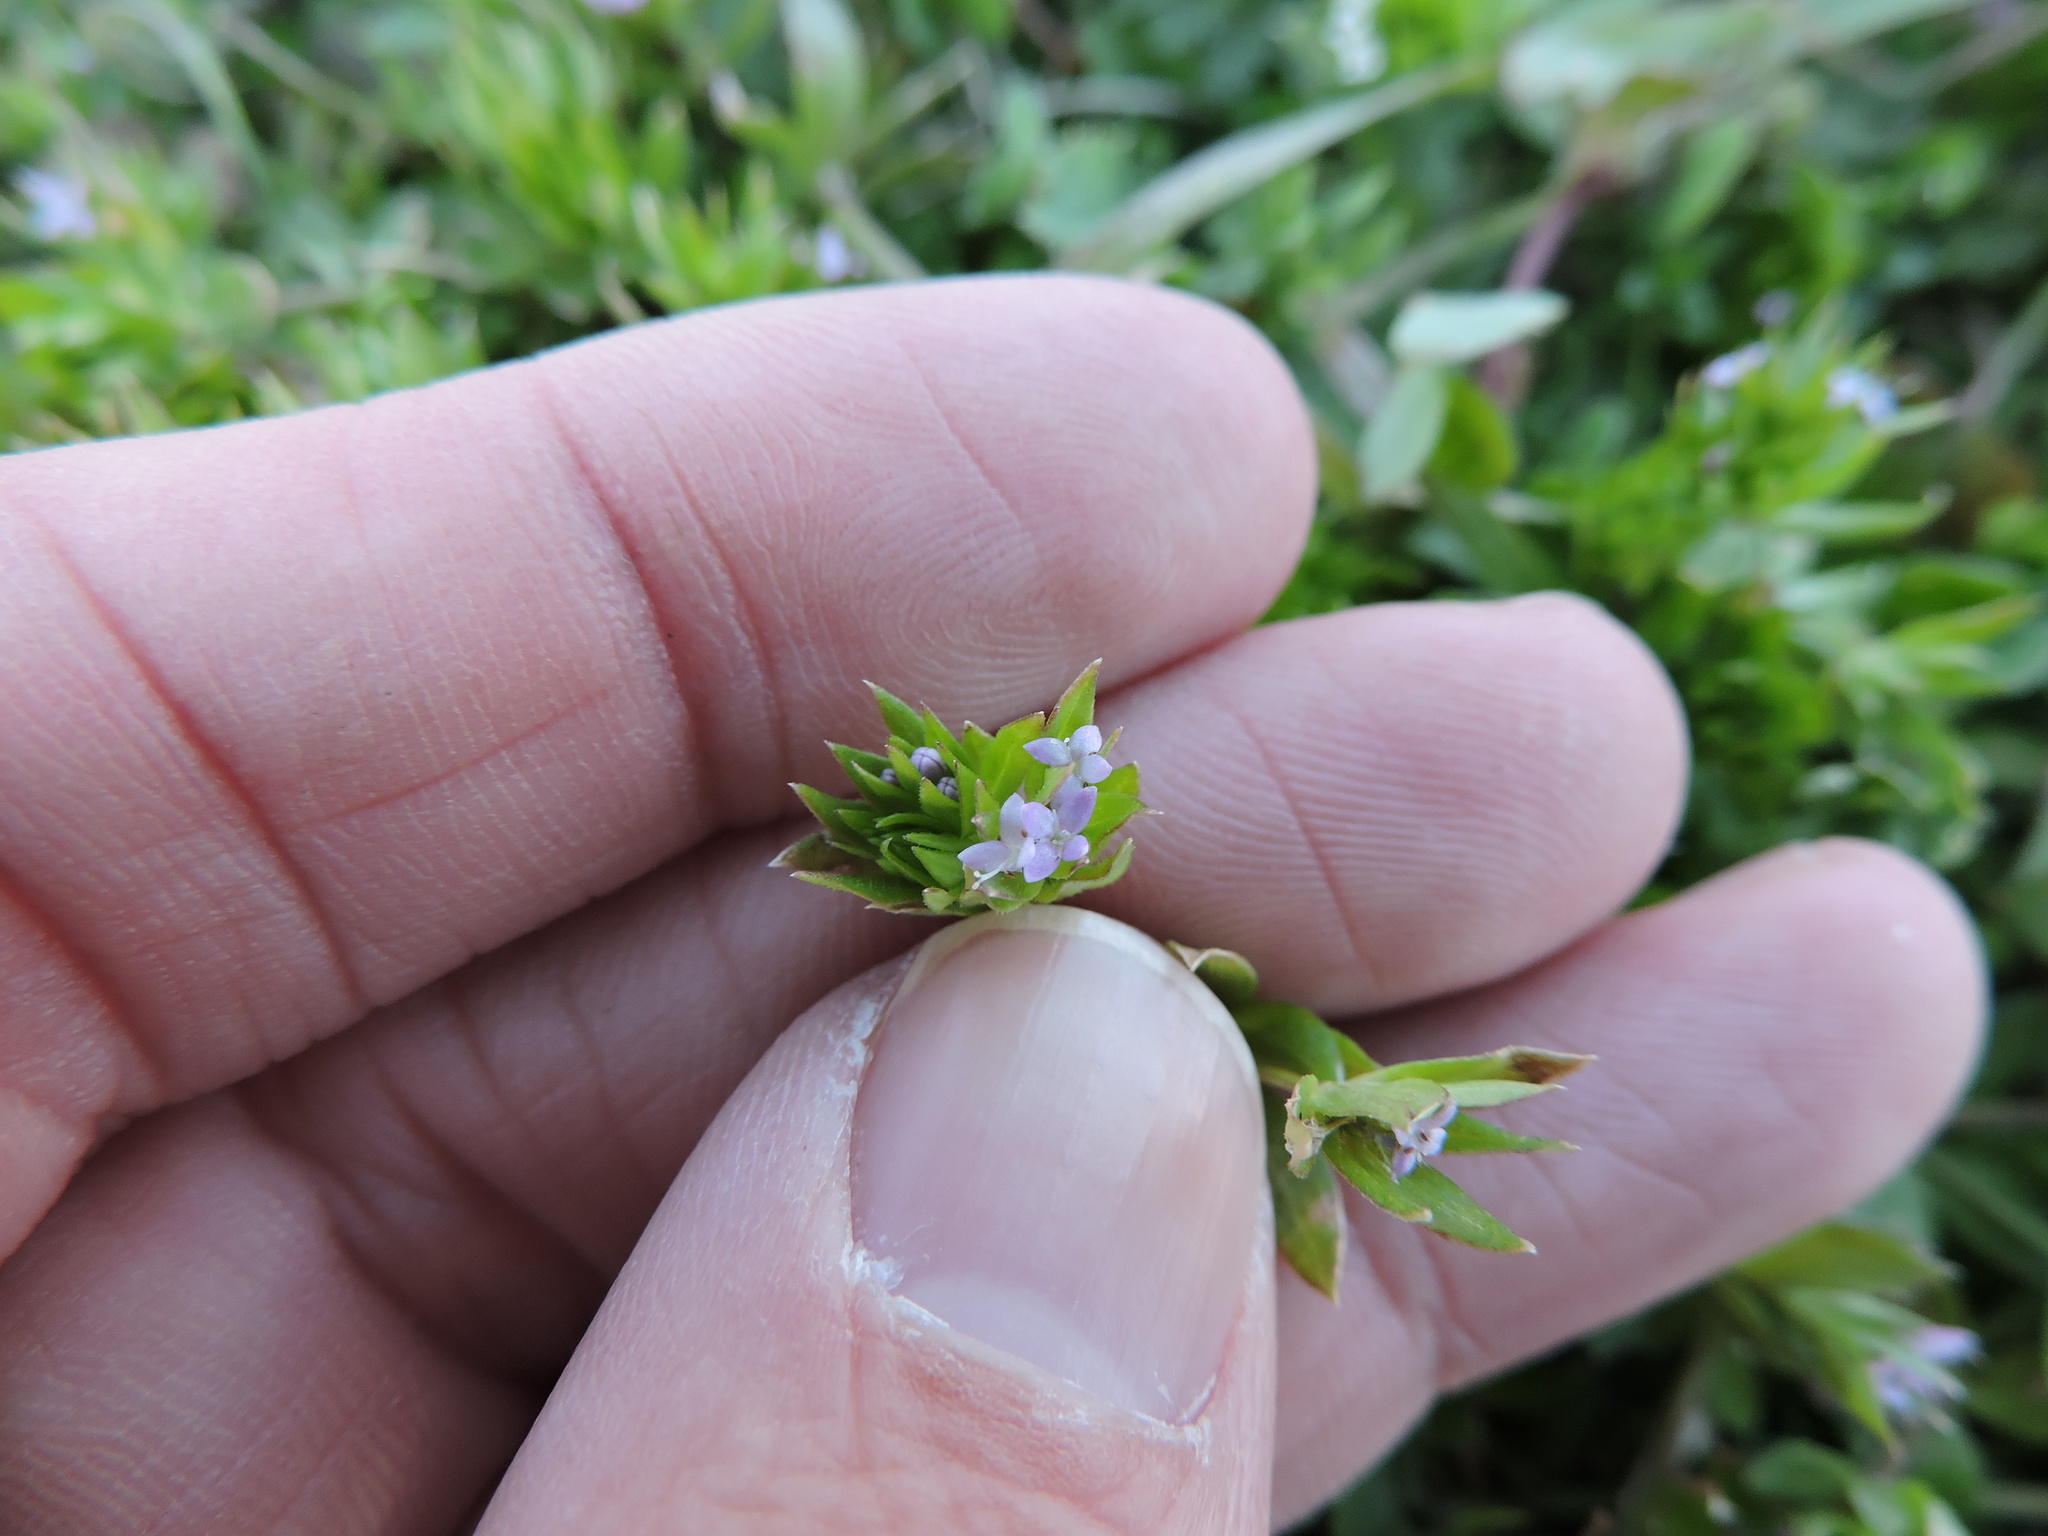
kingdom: Plantae
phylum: Tracheophyta
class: Magnoliopsida
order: Gentianales
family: Rubiaceae
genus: Sherardia
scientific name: Sherardia arvensis
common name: Field madder
